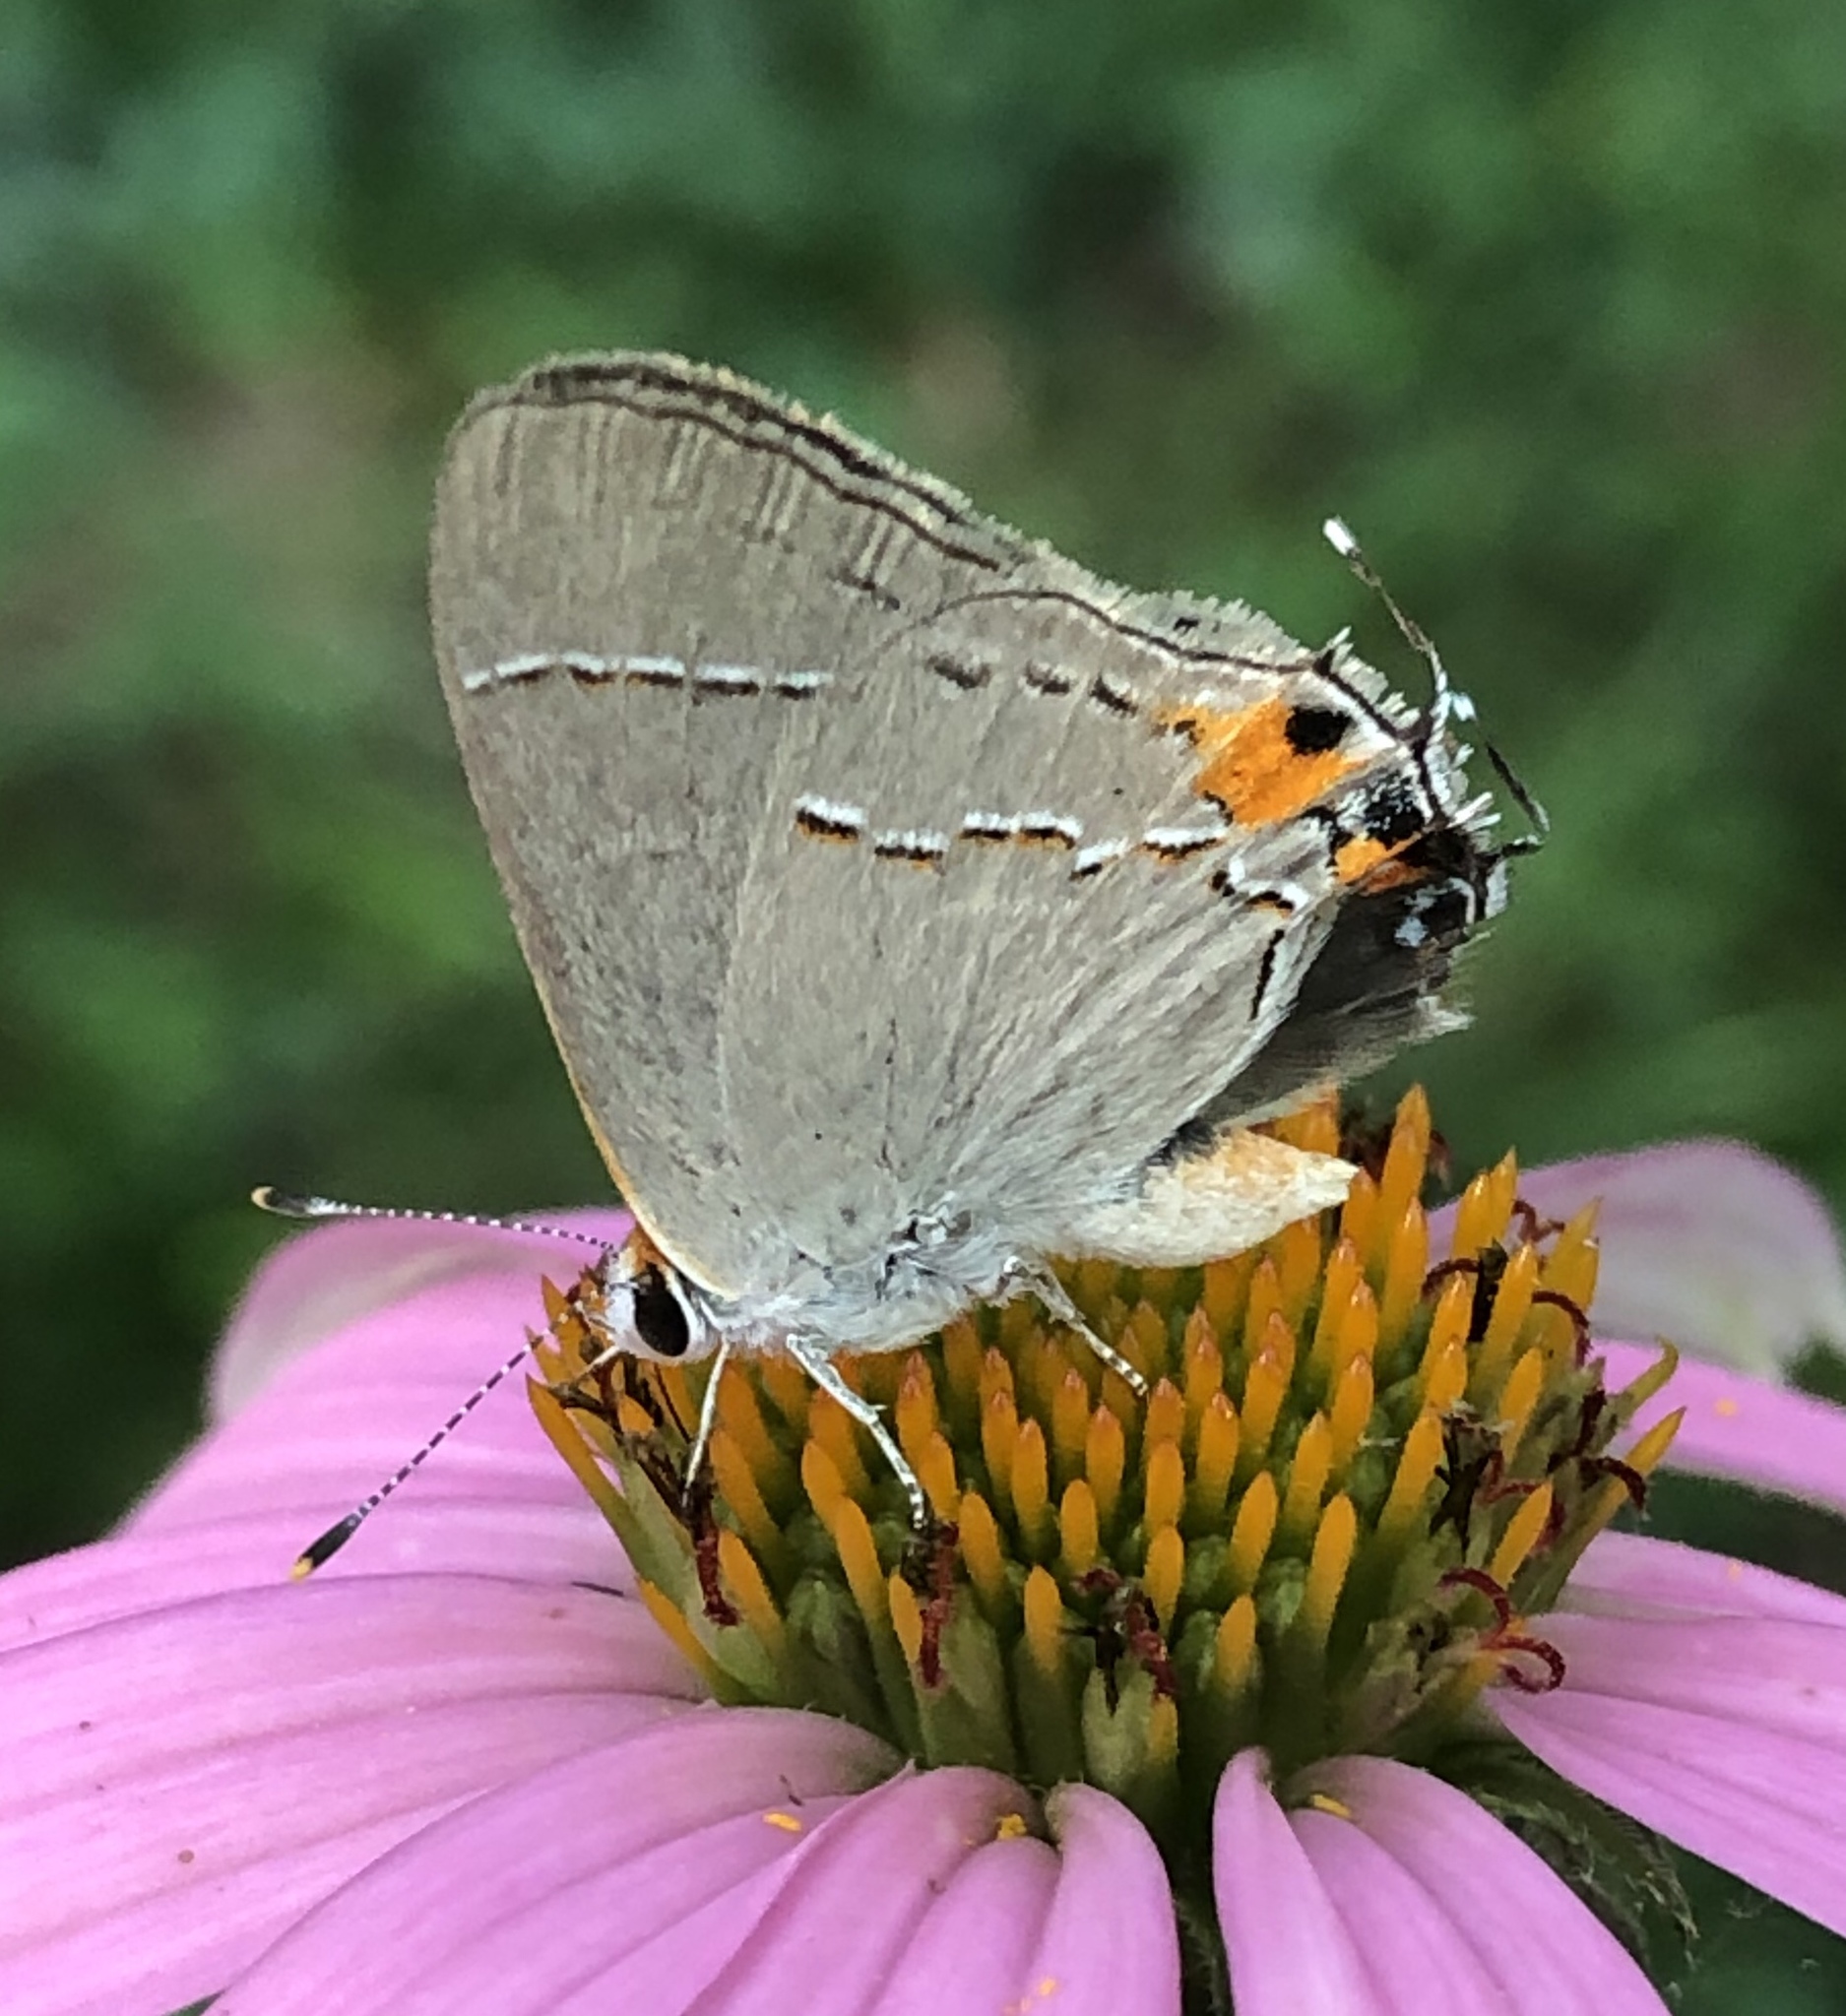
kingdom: Animalia
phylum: Arthropoda
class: Insecta
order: Lepidoptera
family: Lycaenidae
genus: Strymon
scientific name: Strymon melinus
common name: Gray hairstreak
